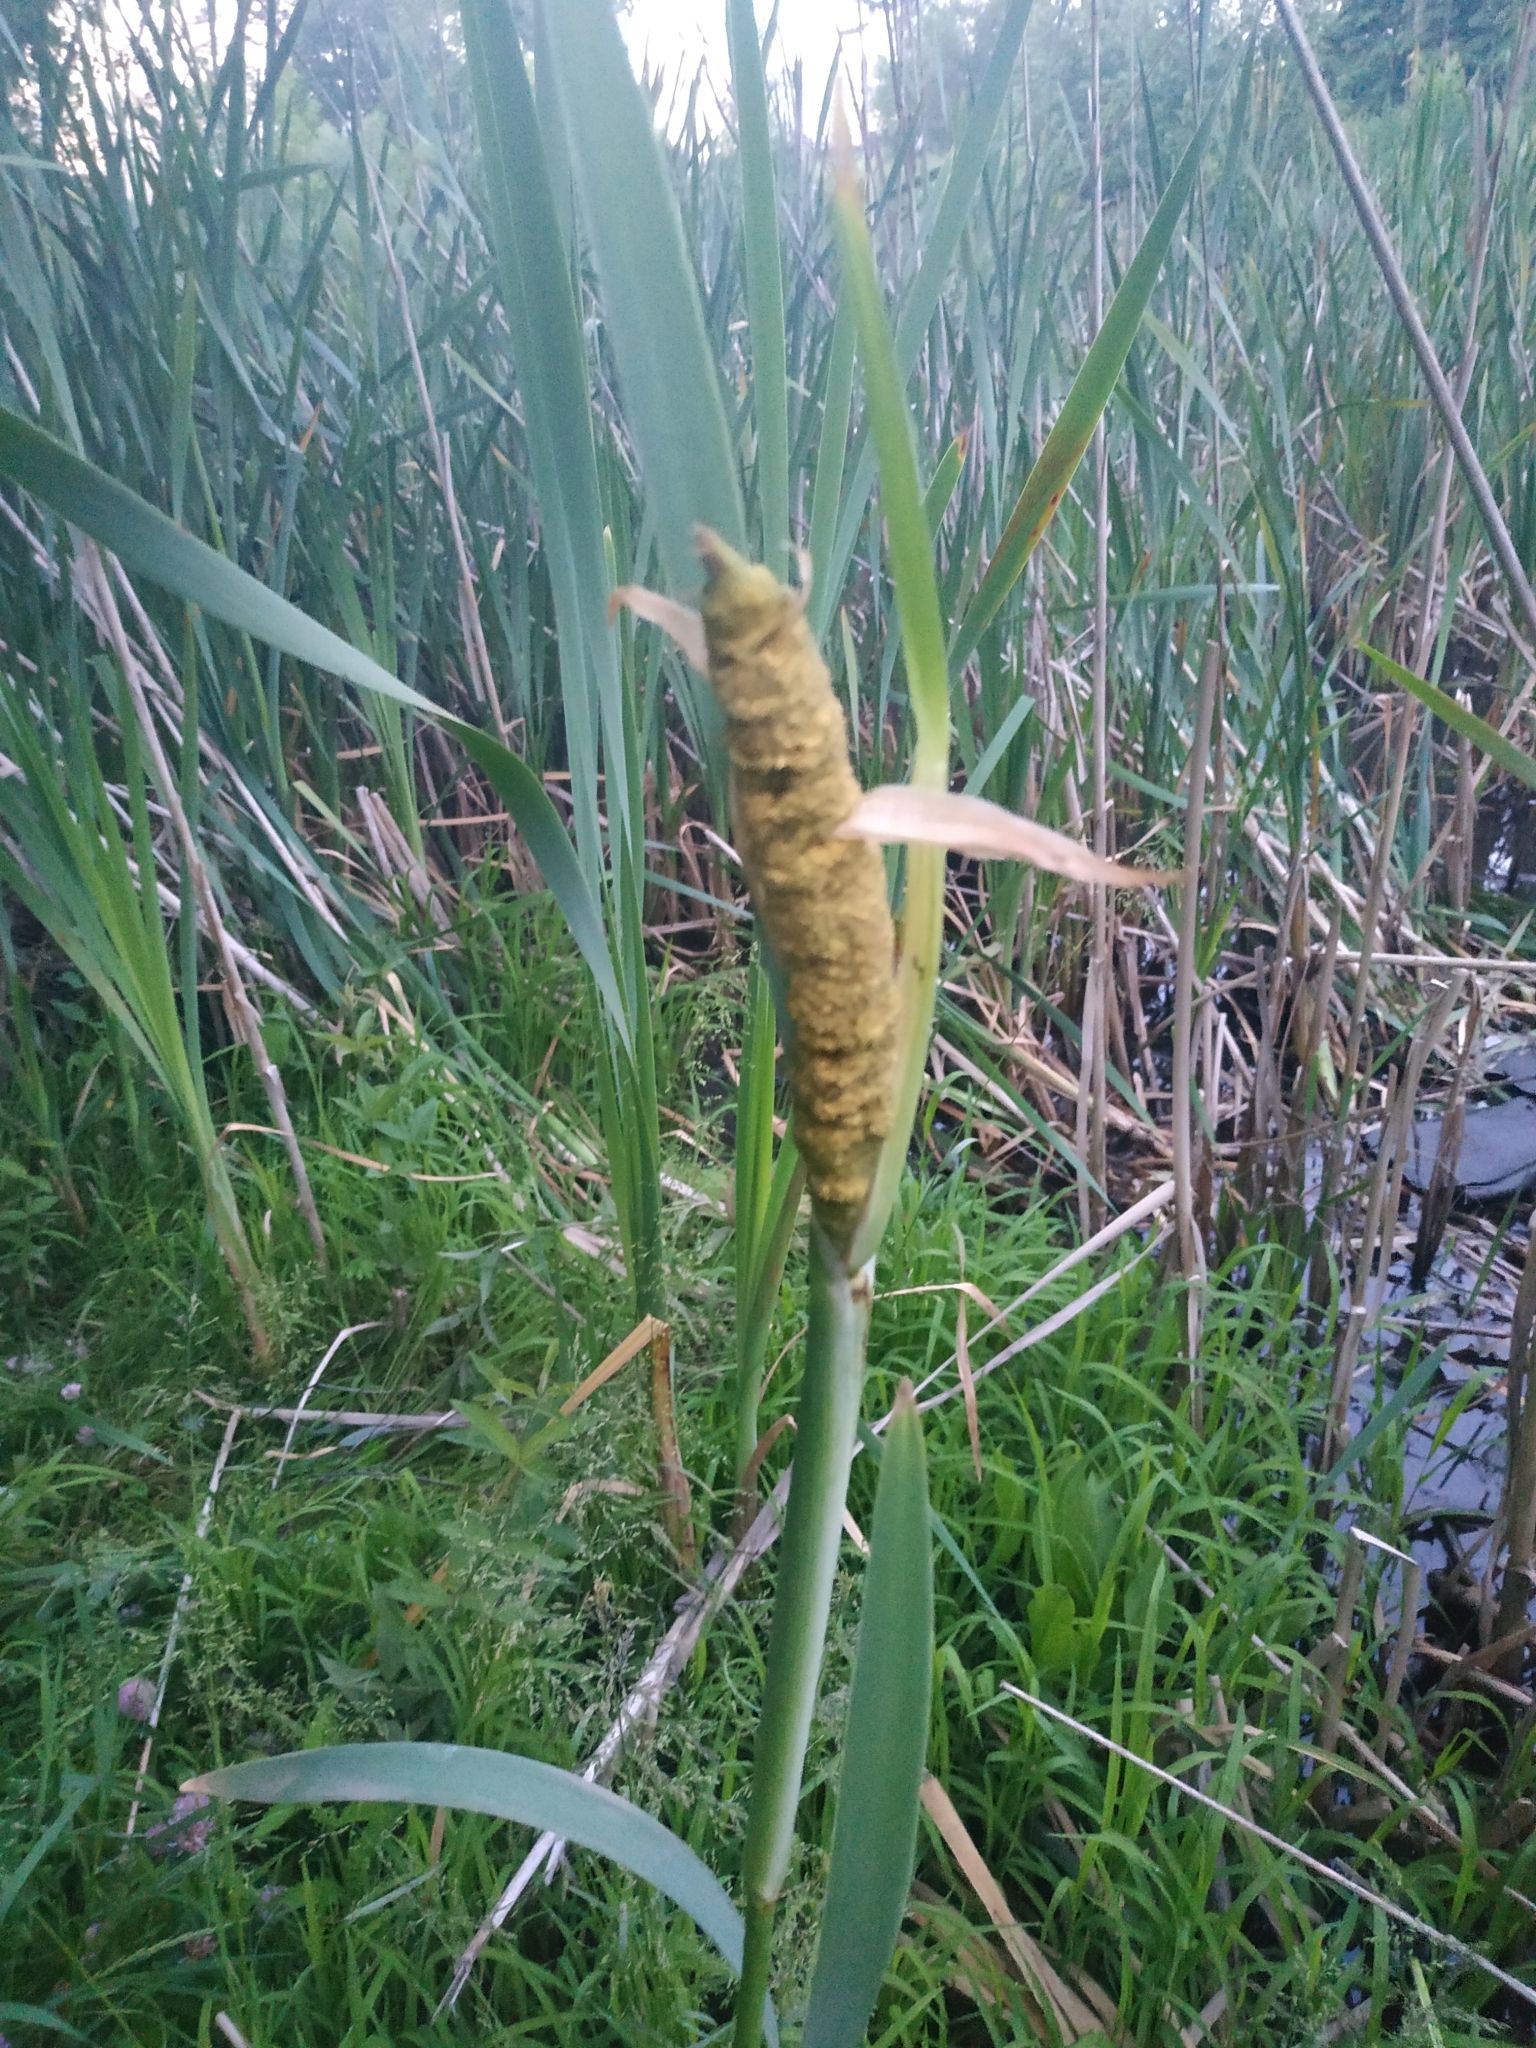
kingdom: Plantae
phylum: Tracheophyta
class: Liliopsida
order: Poales
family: Typhaceae
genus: Typha
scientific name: Typha latifolia
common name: Broadleaf cattail
